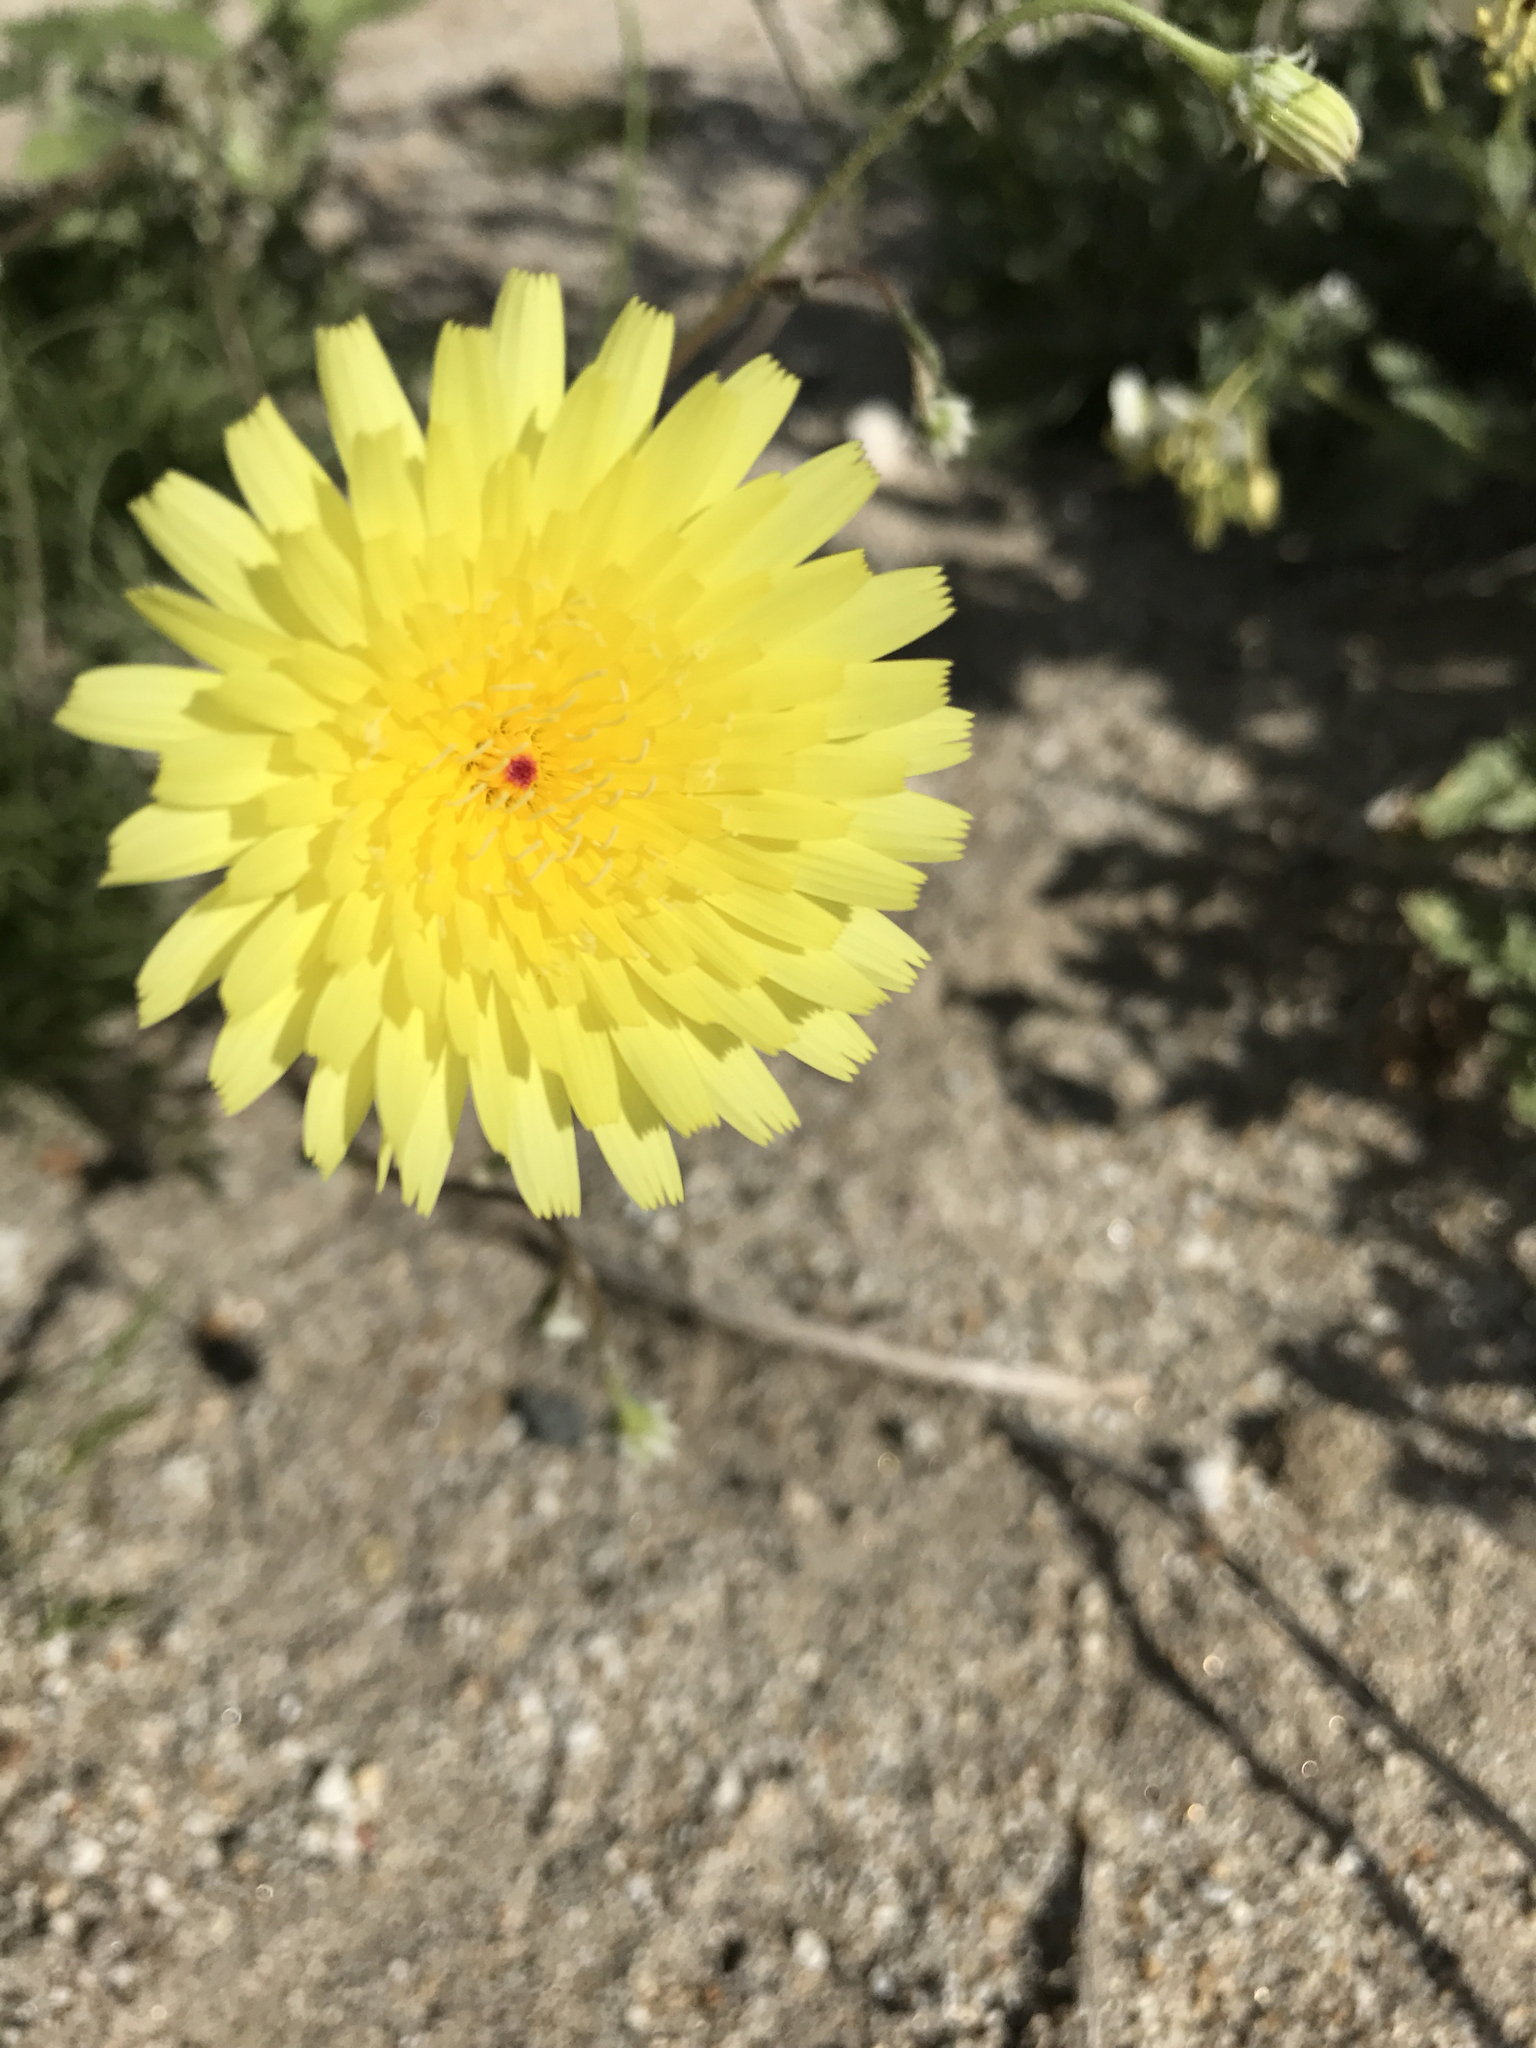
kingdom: Plantae
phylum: Tracheophyta
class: Magnoliopsida
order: Asterales
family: Asteraceae
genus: Malacothrix
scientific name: Malacothrix glabrata
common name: Smooth desert-dandelion
